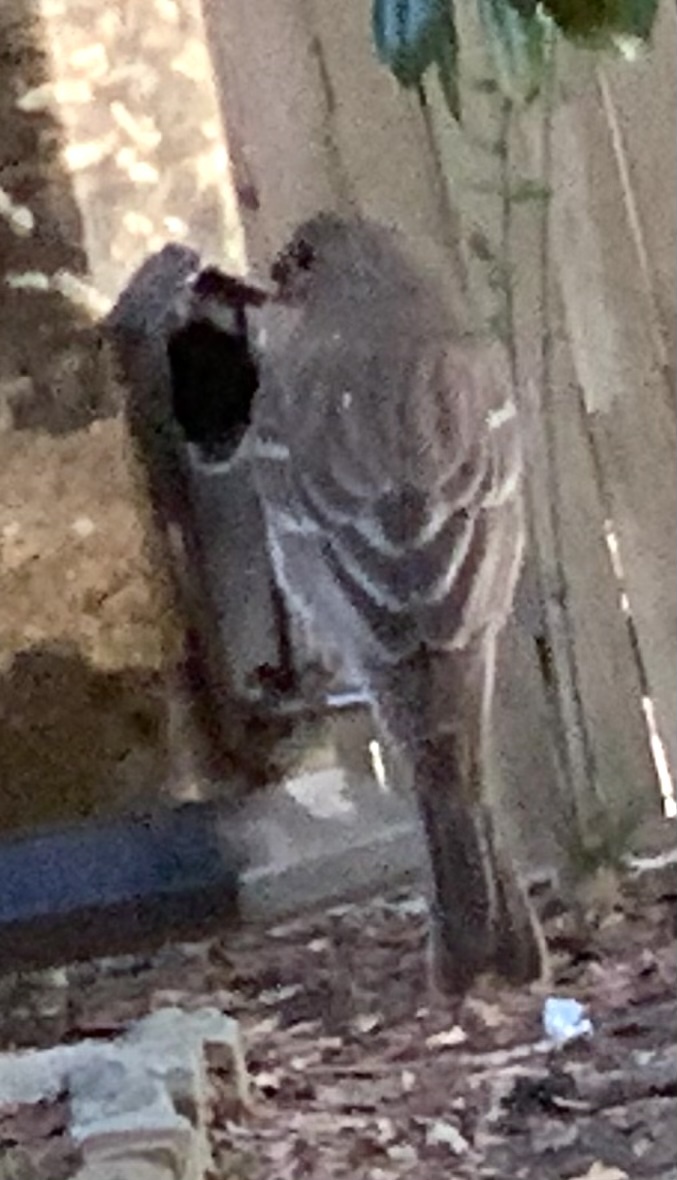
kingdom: Animalia
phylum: Chordata
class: Aves
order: Passeriformes
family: Fringillidae
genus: Haemorhous
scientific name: Haemorhous mexicanus
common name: House finch
